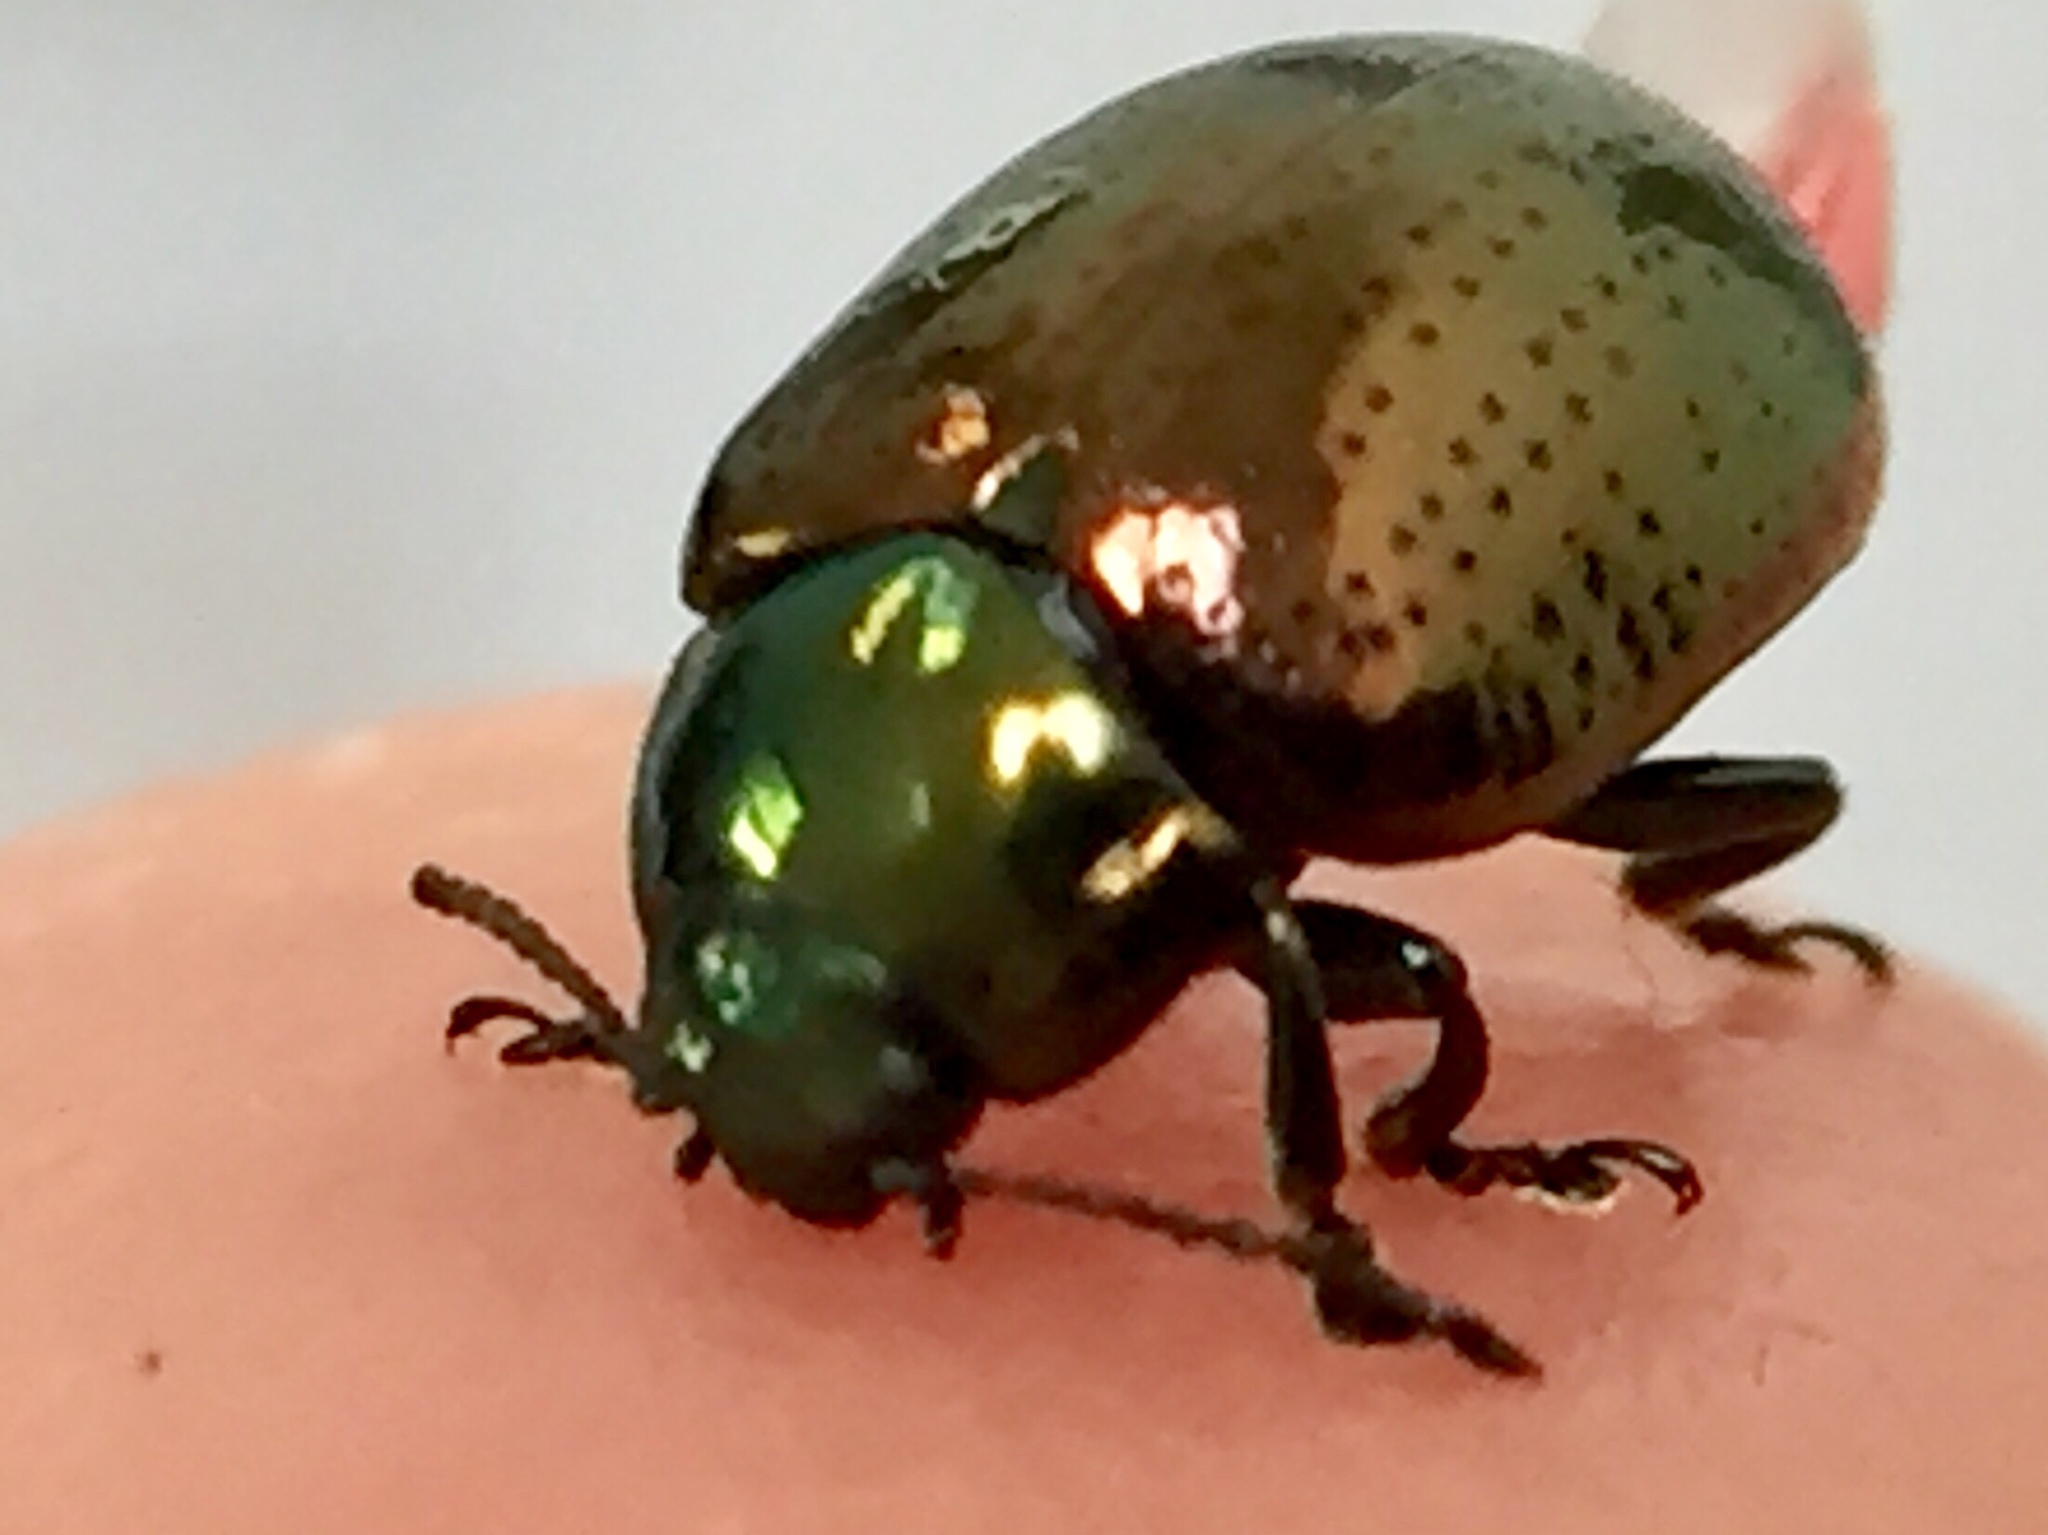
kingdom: Animalia
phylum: Arthropoda
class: Insecta
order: Coleoptera
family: Chrysomelidae
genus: Chrysolina
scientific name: Chrysolina hyperici
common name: St. johnswort beetle
